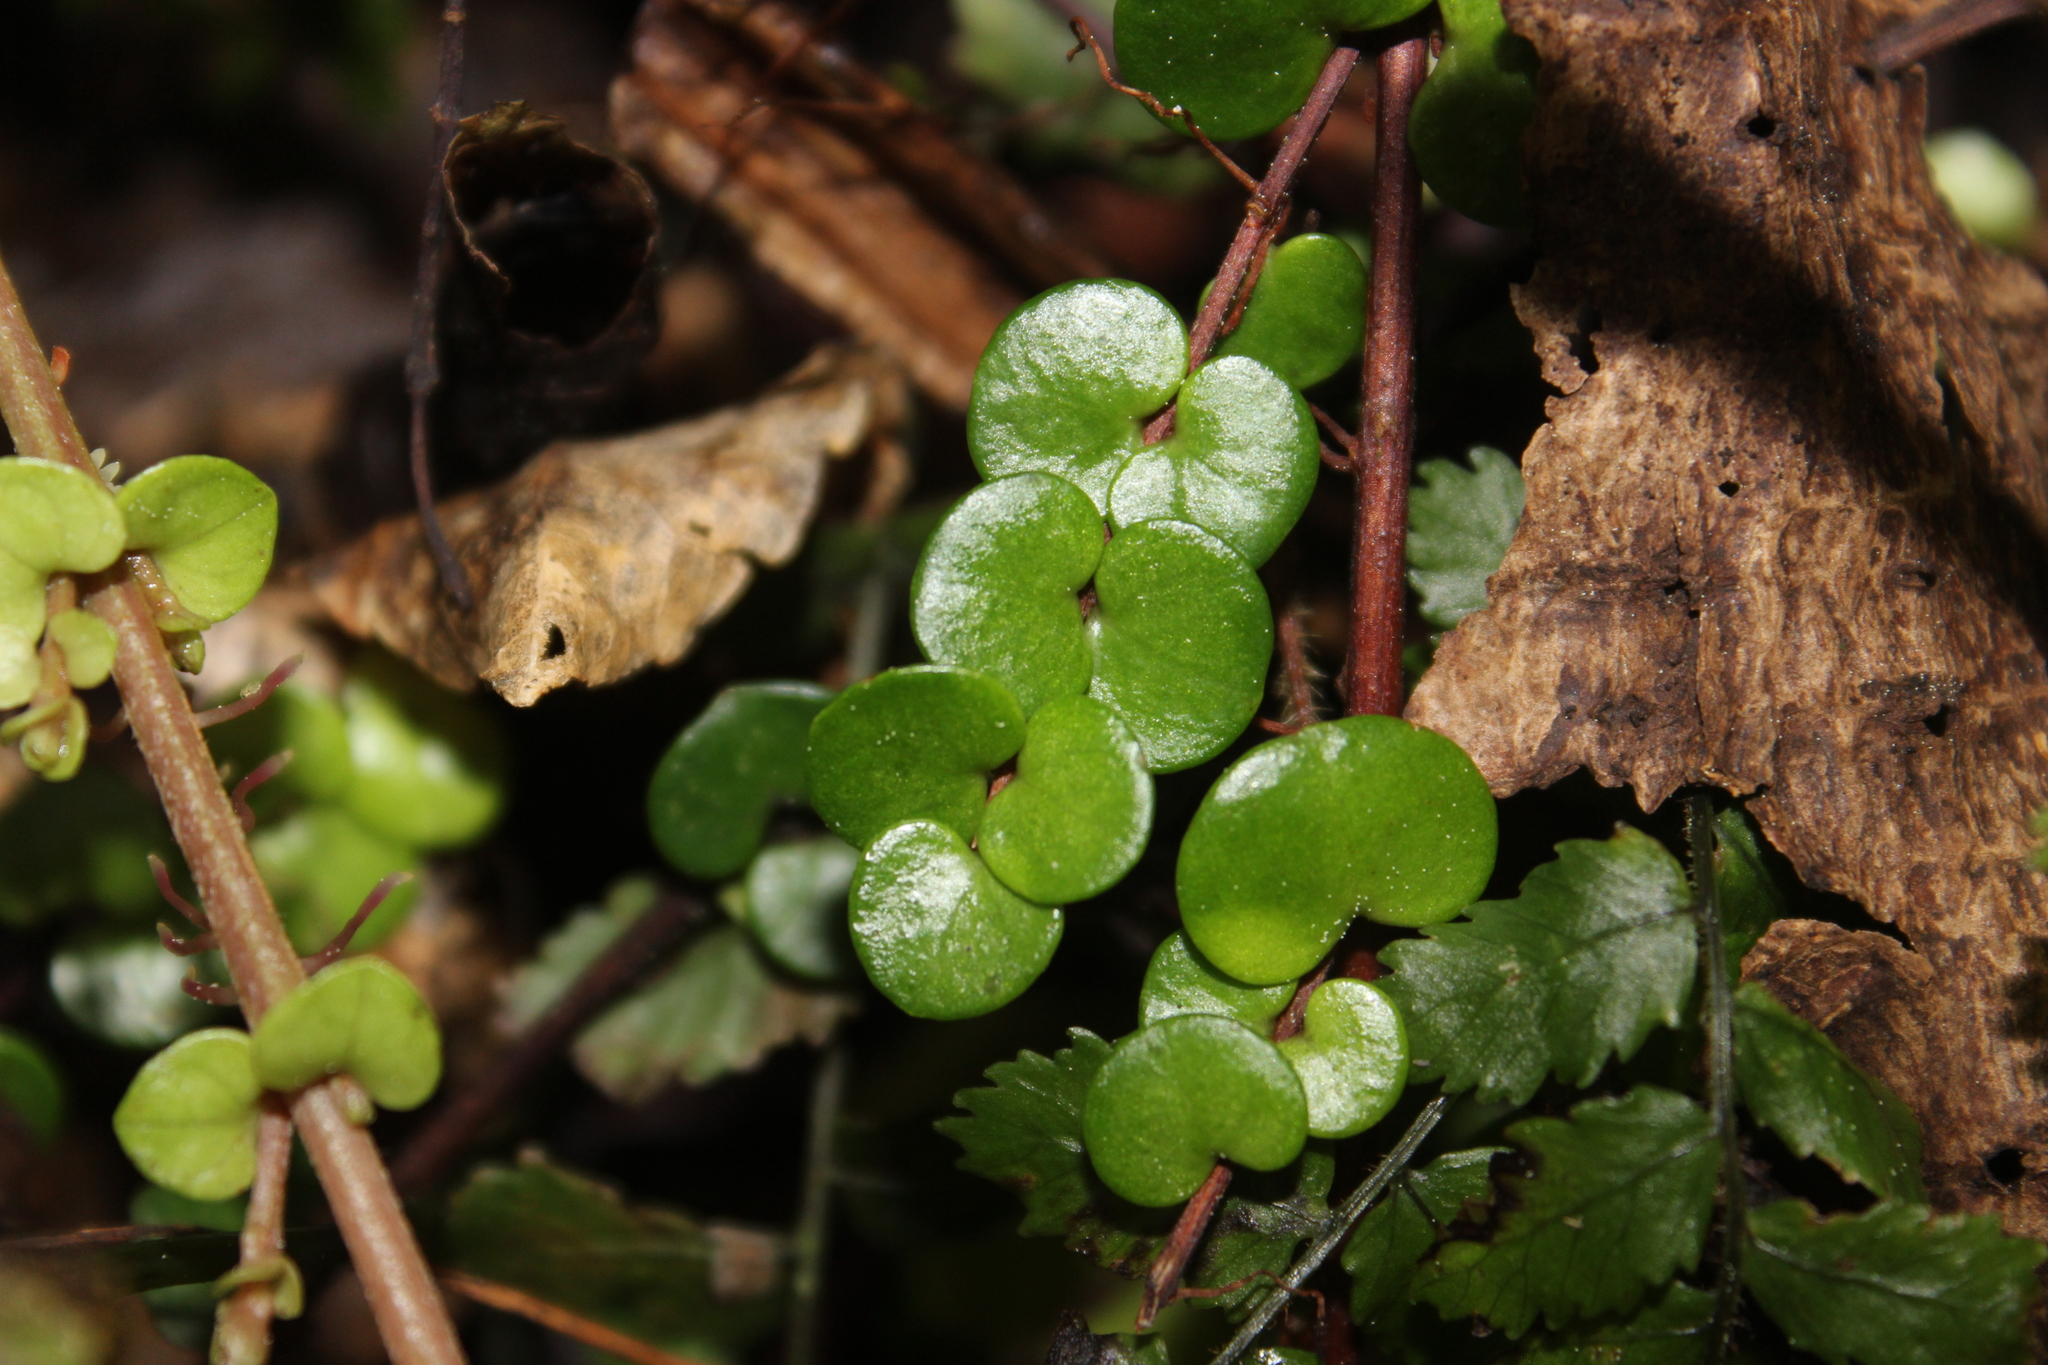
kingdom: Plantae
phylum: Tracheophyta
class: Magnoliopsida
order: Myrtales
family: Myrtaceae
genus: Metrosideros
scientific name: Metrosideros perforata
